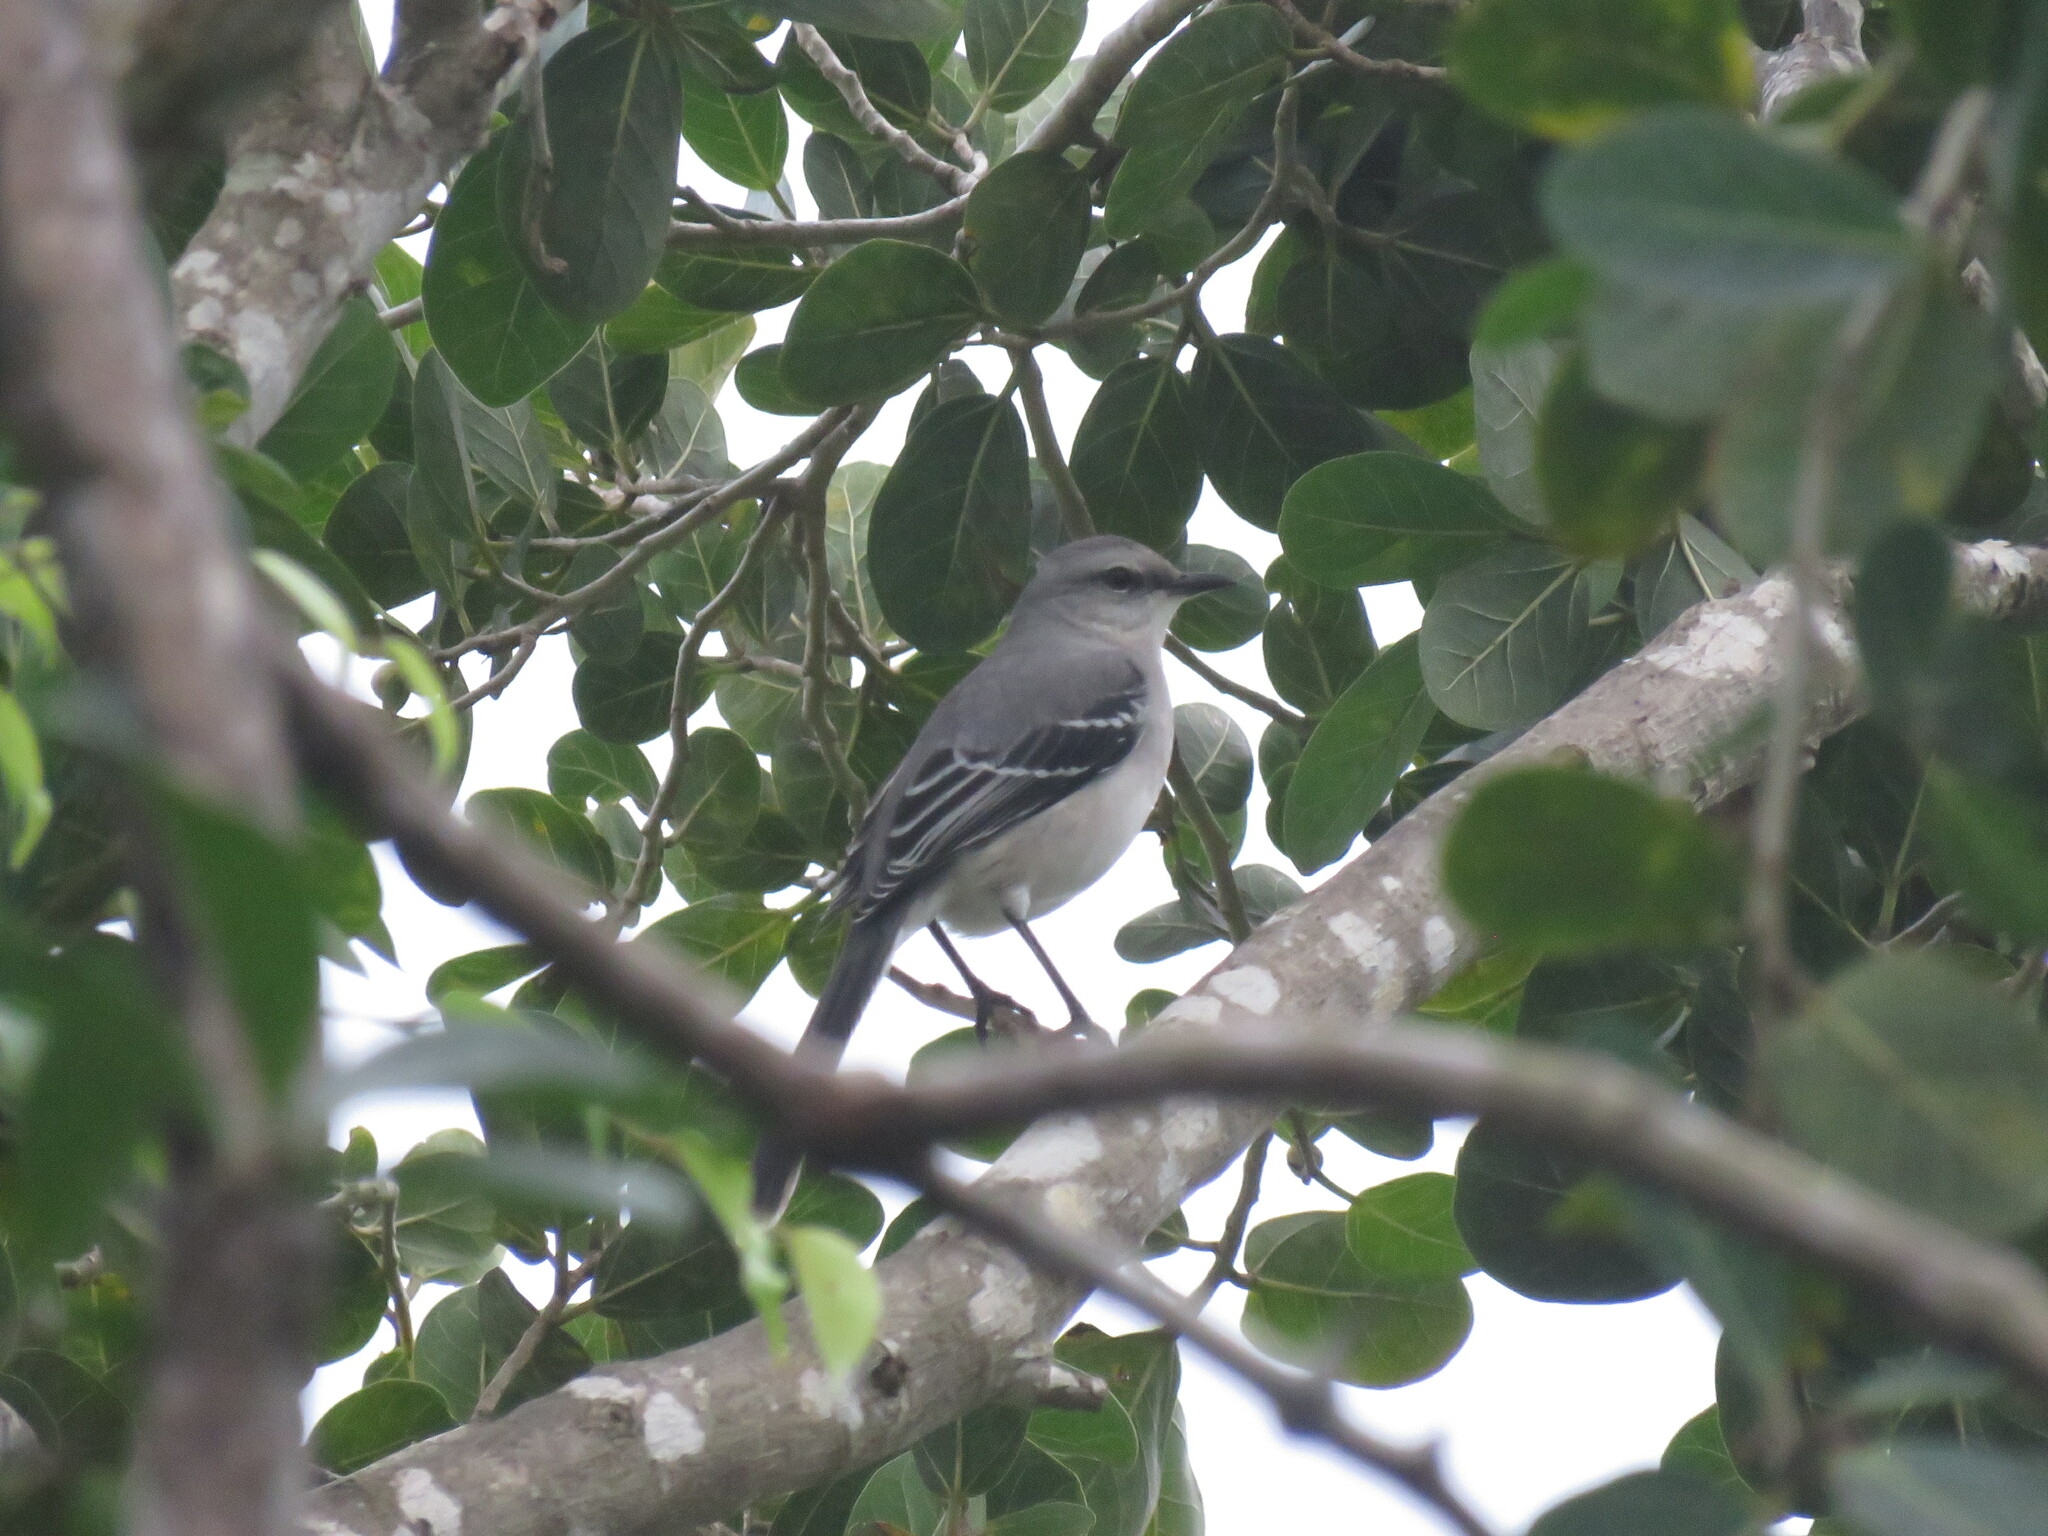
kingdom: Animalia
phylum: Chordata
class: Aves
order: Passeriformes
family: Mimidae
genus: Mimus
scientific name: Mimus gilvus
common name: Tropical mockingbird
